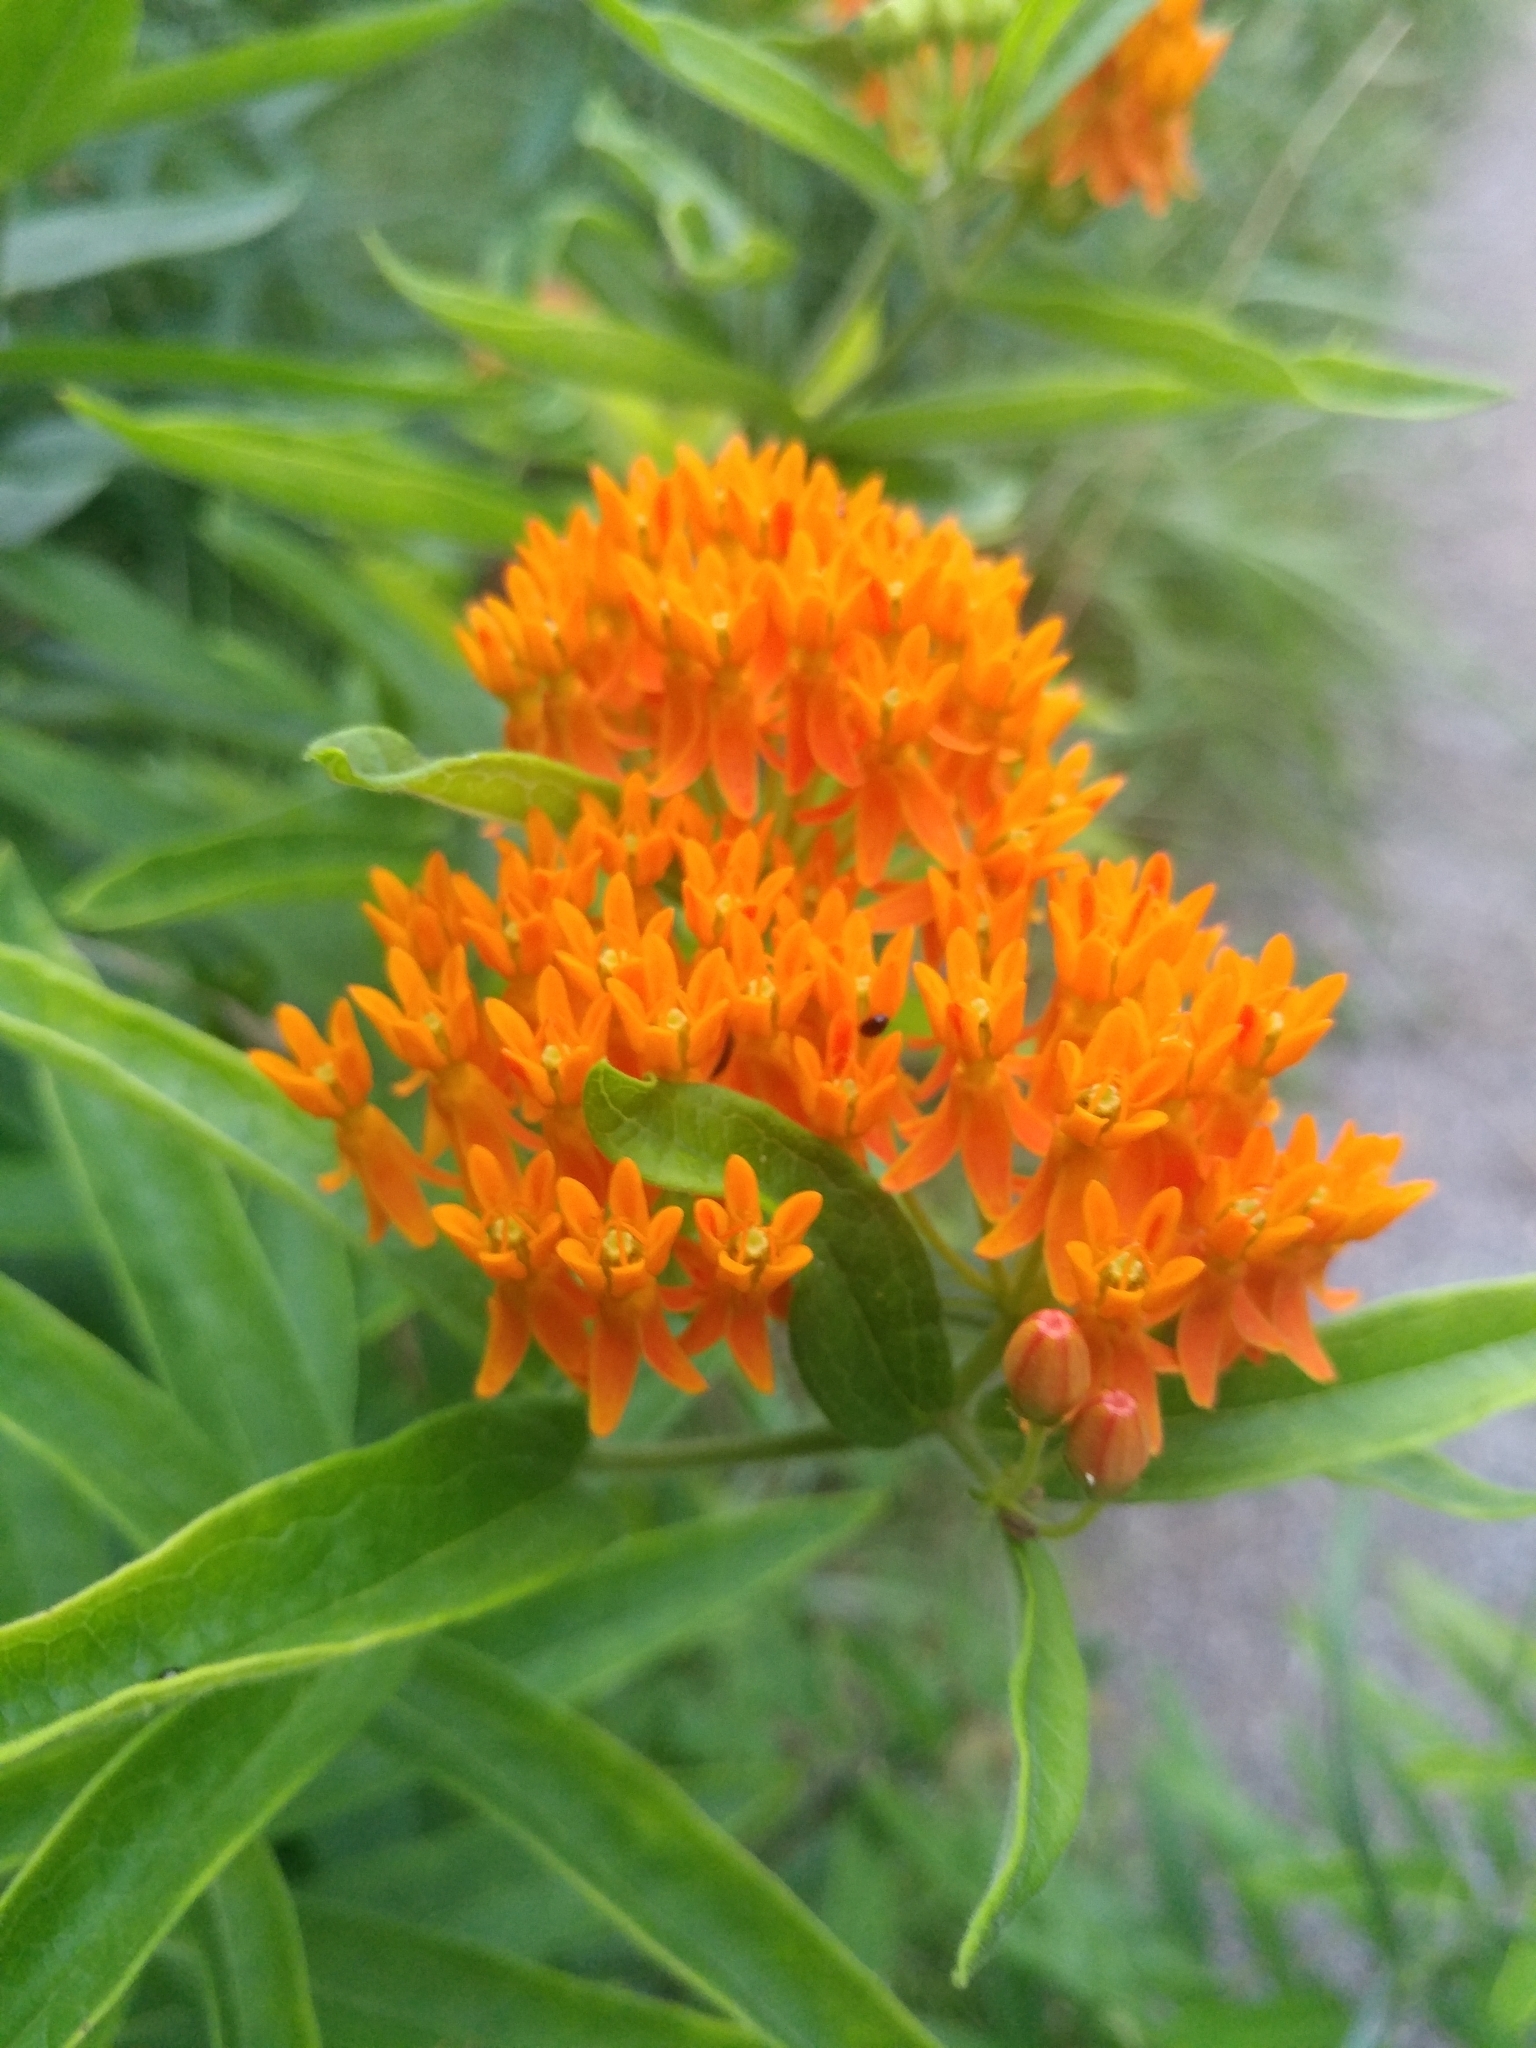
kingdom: Plantae
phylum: Tracheophyta
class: Magnoliopsida
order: Gentianales
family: Apocynaceae
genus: Asclepias
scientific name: Asclepias tuberosa
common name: Butterfly milkweed
